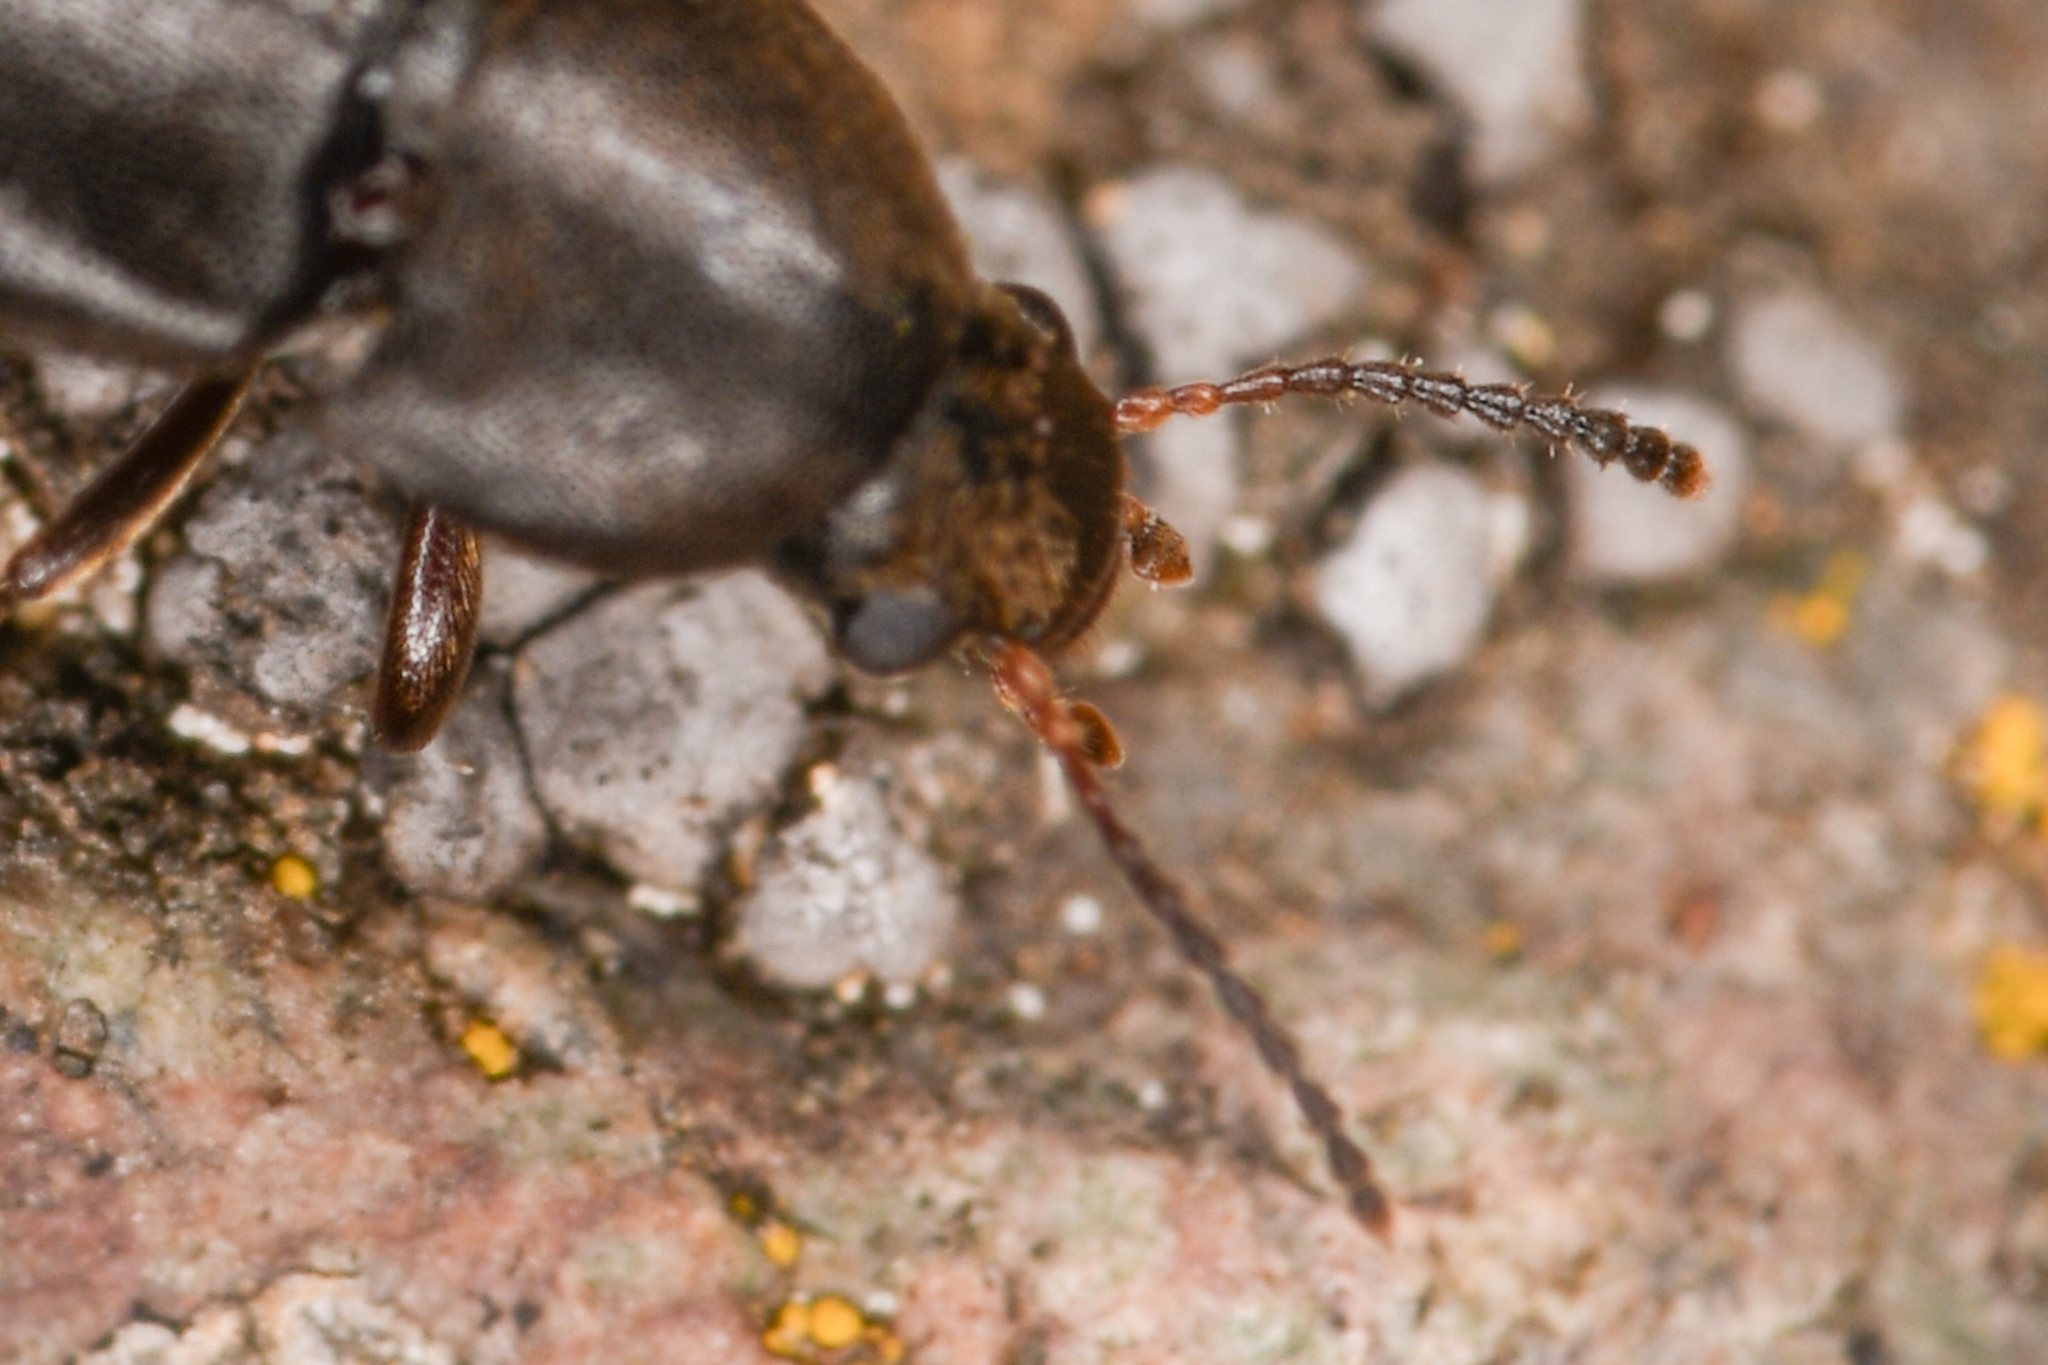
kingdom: Animalia
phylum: Arthropoda
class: Insecta
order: Coleoptera
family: Melandryidae
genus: Scotochroa
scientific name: Scotochroa basalis
